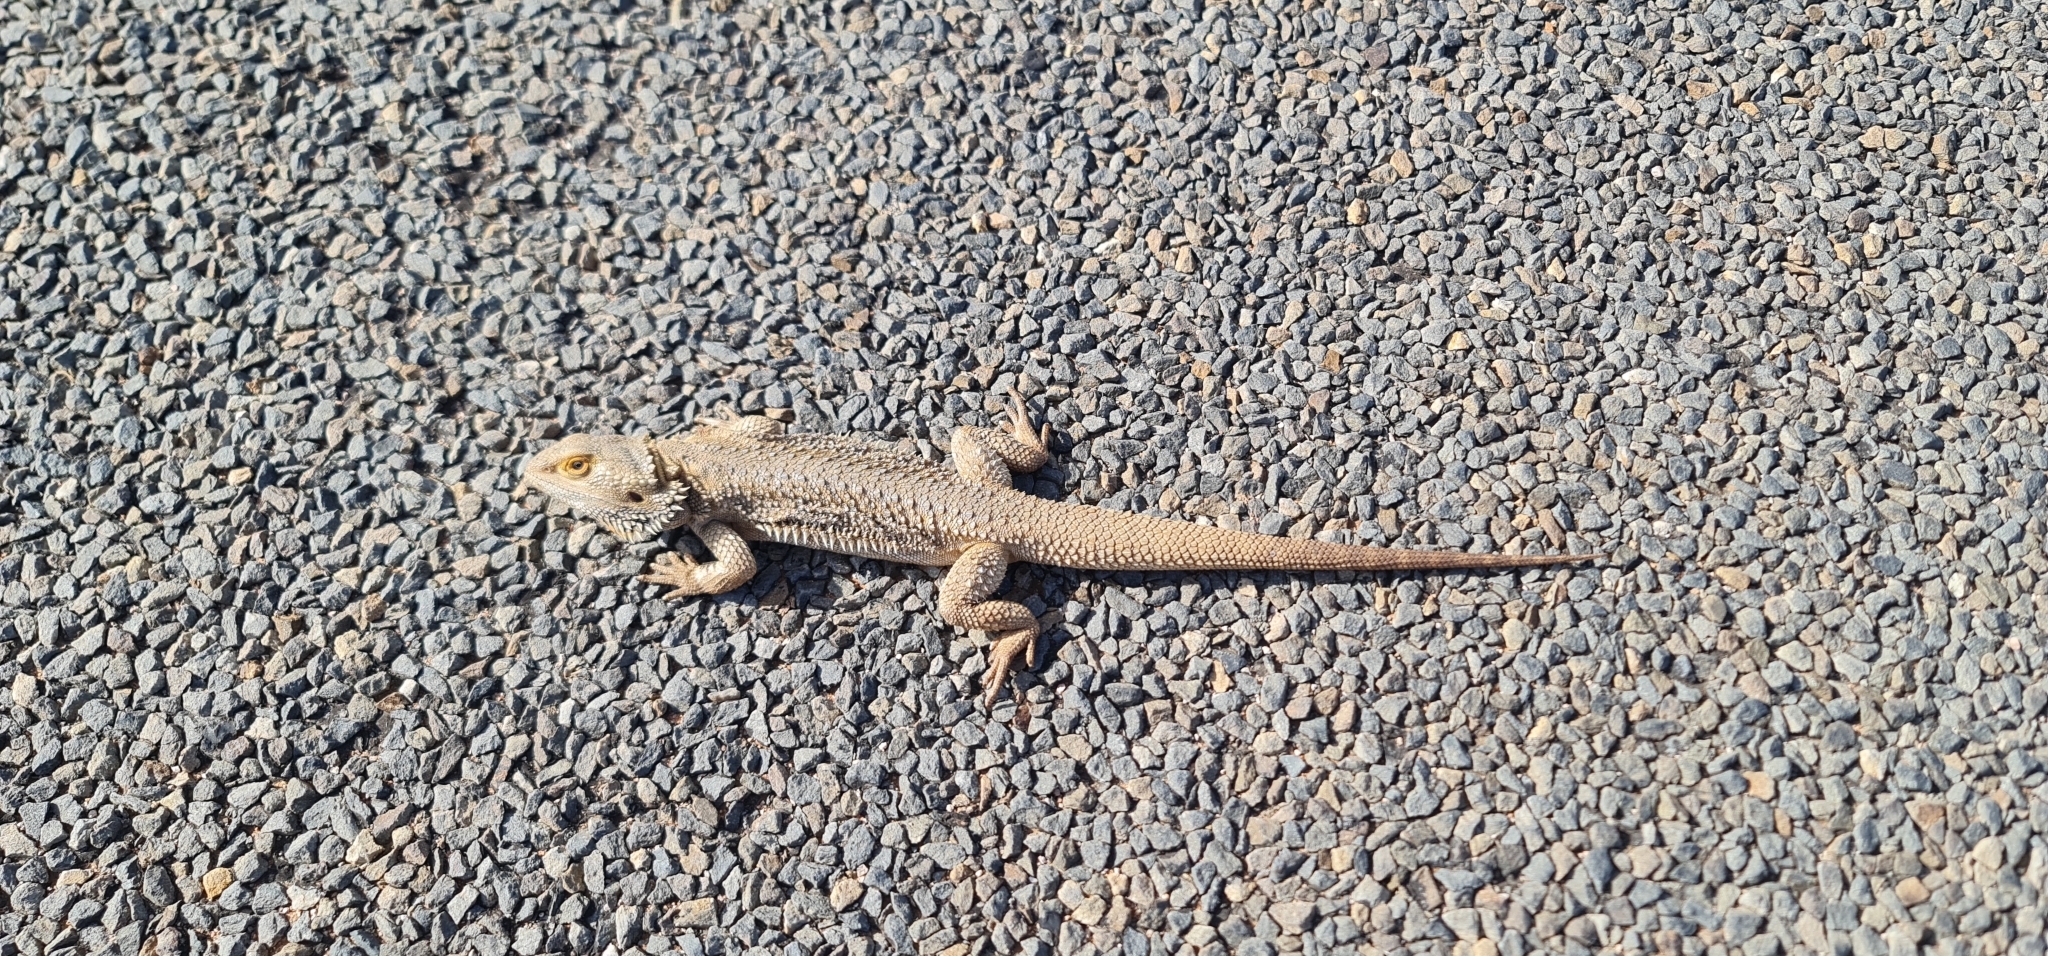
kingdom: Animalia
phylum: Chordata
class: Squamata
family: Agamidae
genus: Pogona
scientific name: Pogona vitticeps
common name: Central bearded dragon
